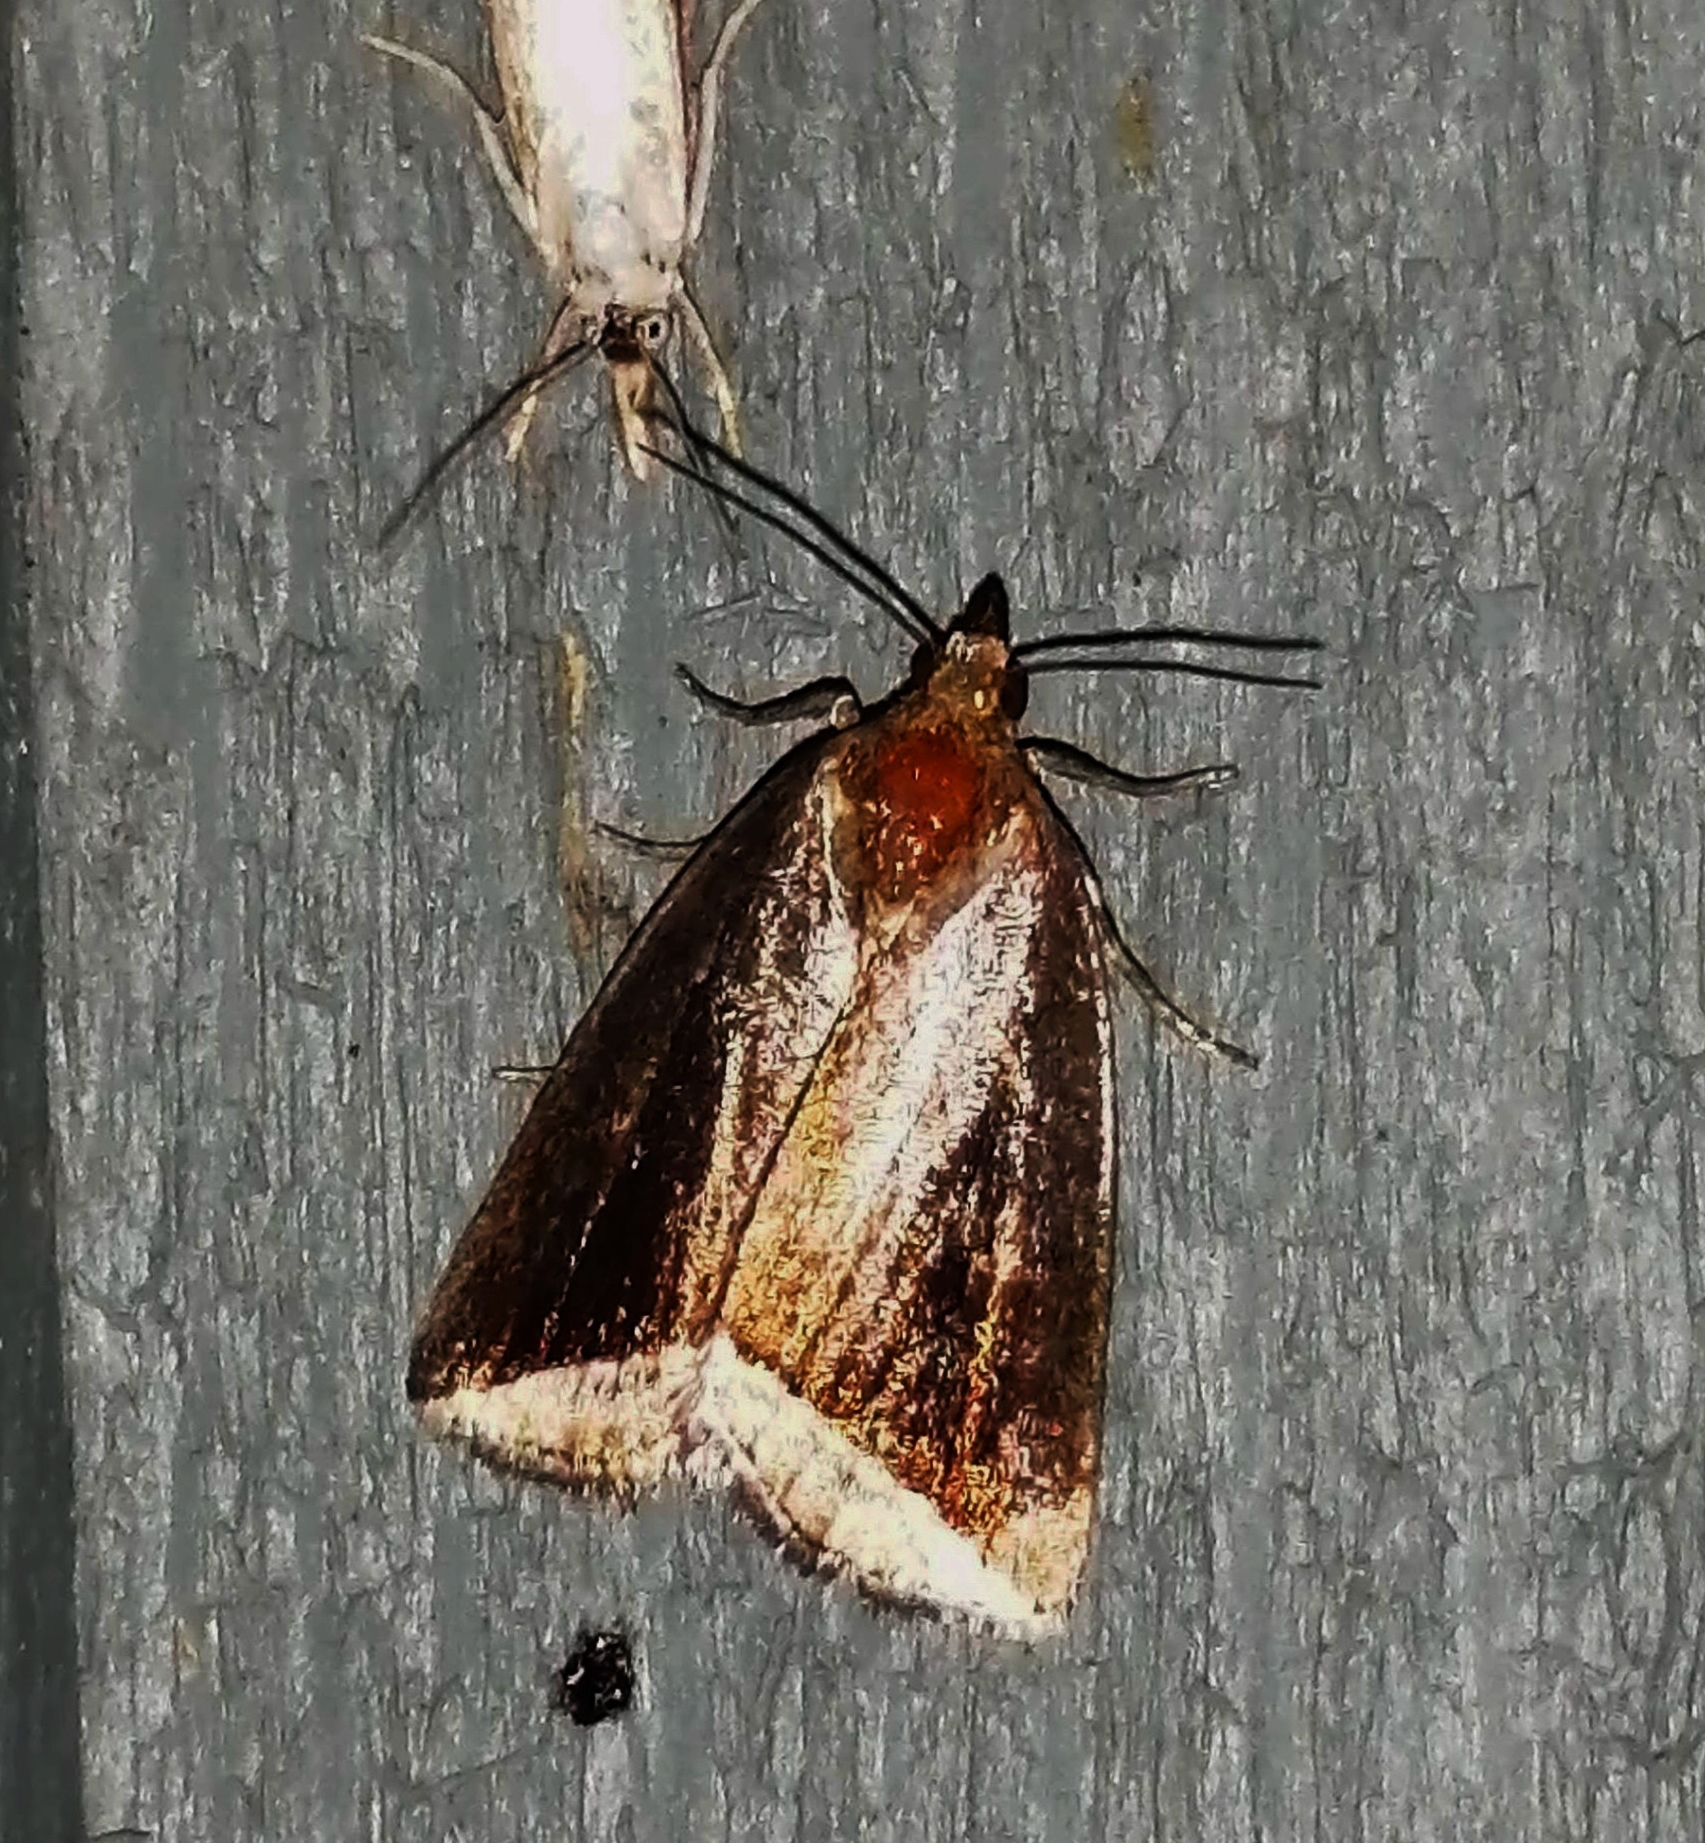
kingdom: Animalia
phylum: Arthropoda
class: Insecta
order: Lepidoptera
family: Erebidae
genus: Capis
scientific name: Capis curvata
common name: Curved halter moth
